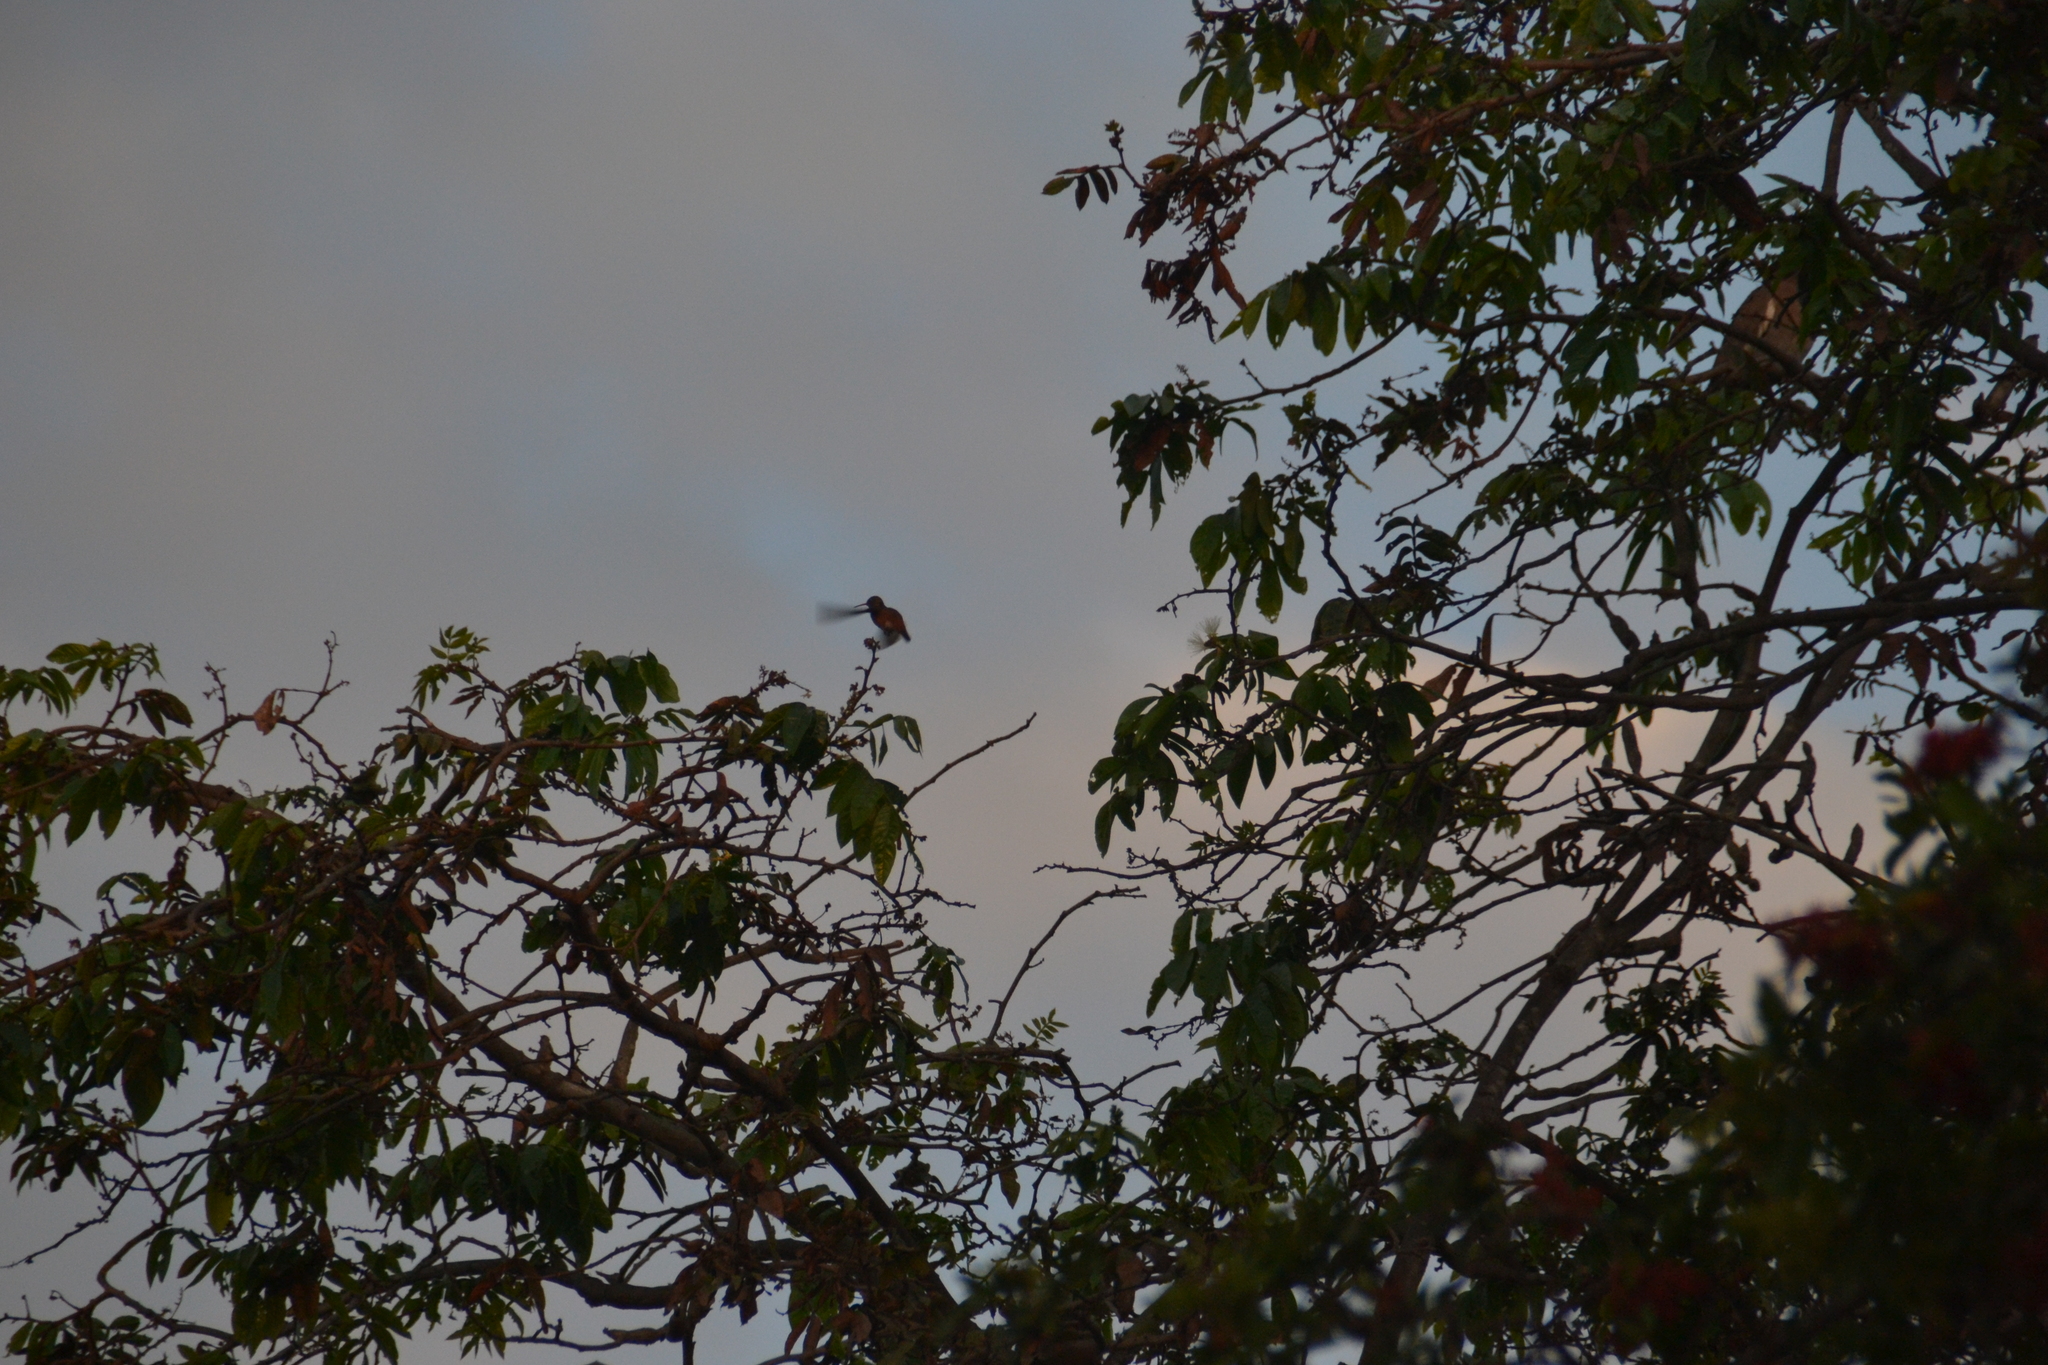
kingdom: Animalia
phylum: Chordata
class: Aves
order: Apodiformes
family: Trochilidae
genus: Amazilis
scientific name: Amazilis amazilia
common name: Amazilia hummingbird
